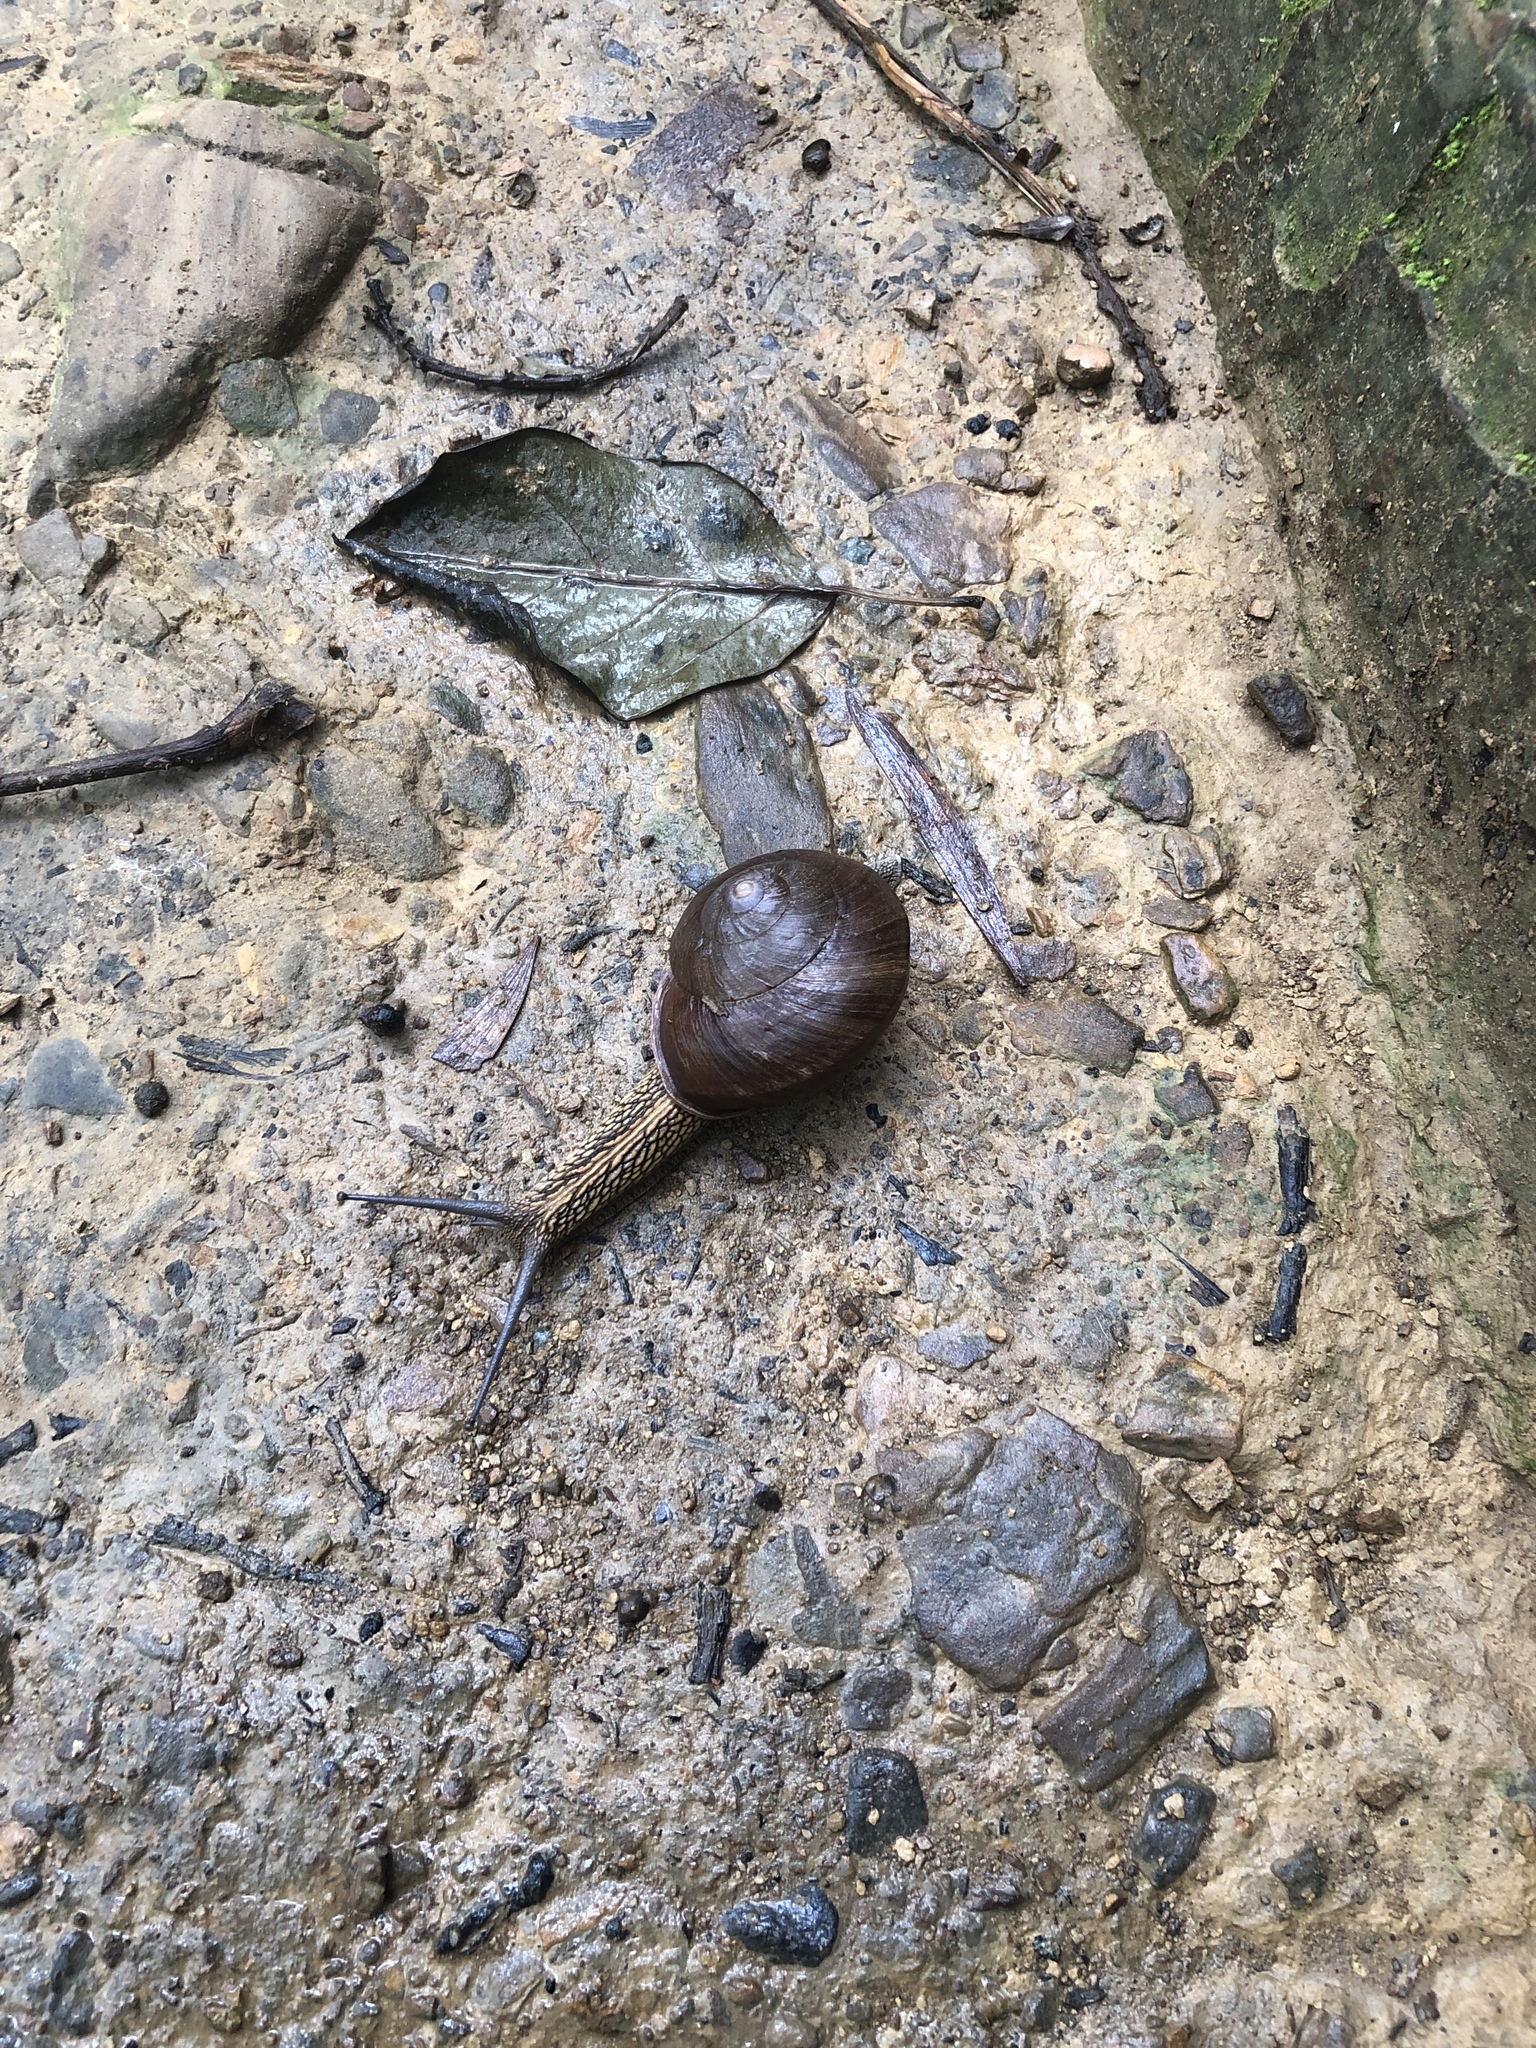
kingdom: Animalia
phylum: Mollusca
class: Gastropoda
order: Stylommatophora
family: Camaenidae
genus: Nesiohelix
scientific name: Nesiohelix swinhoei
